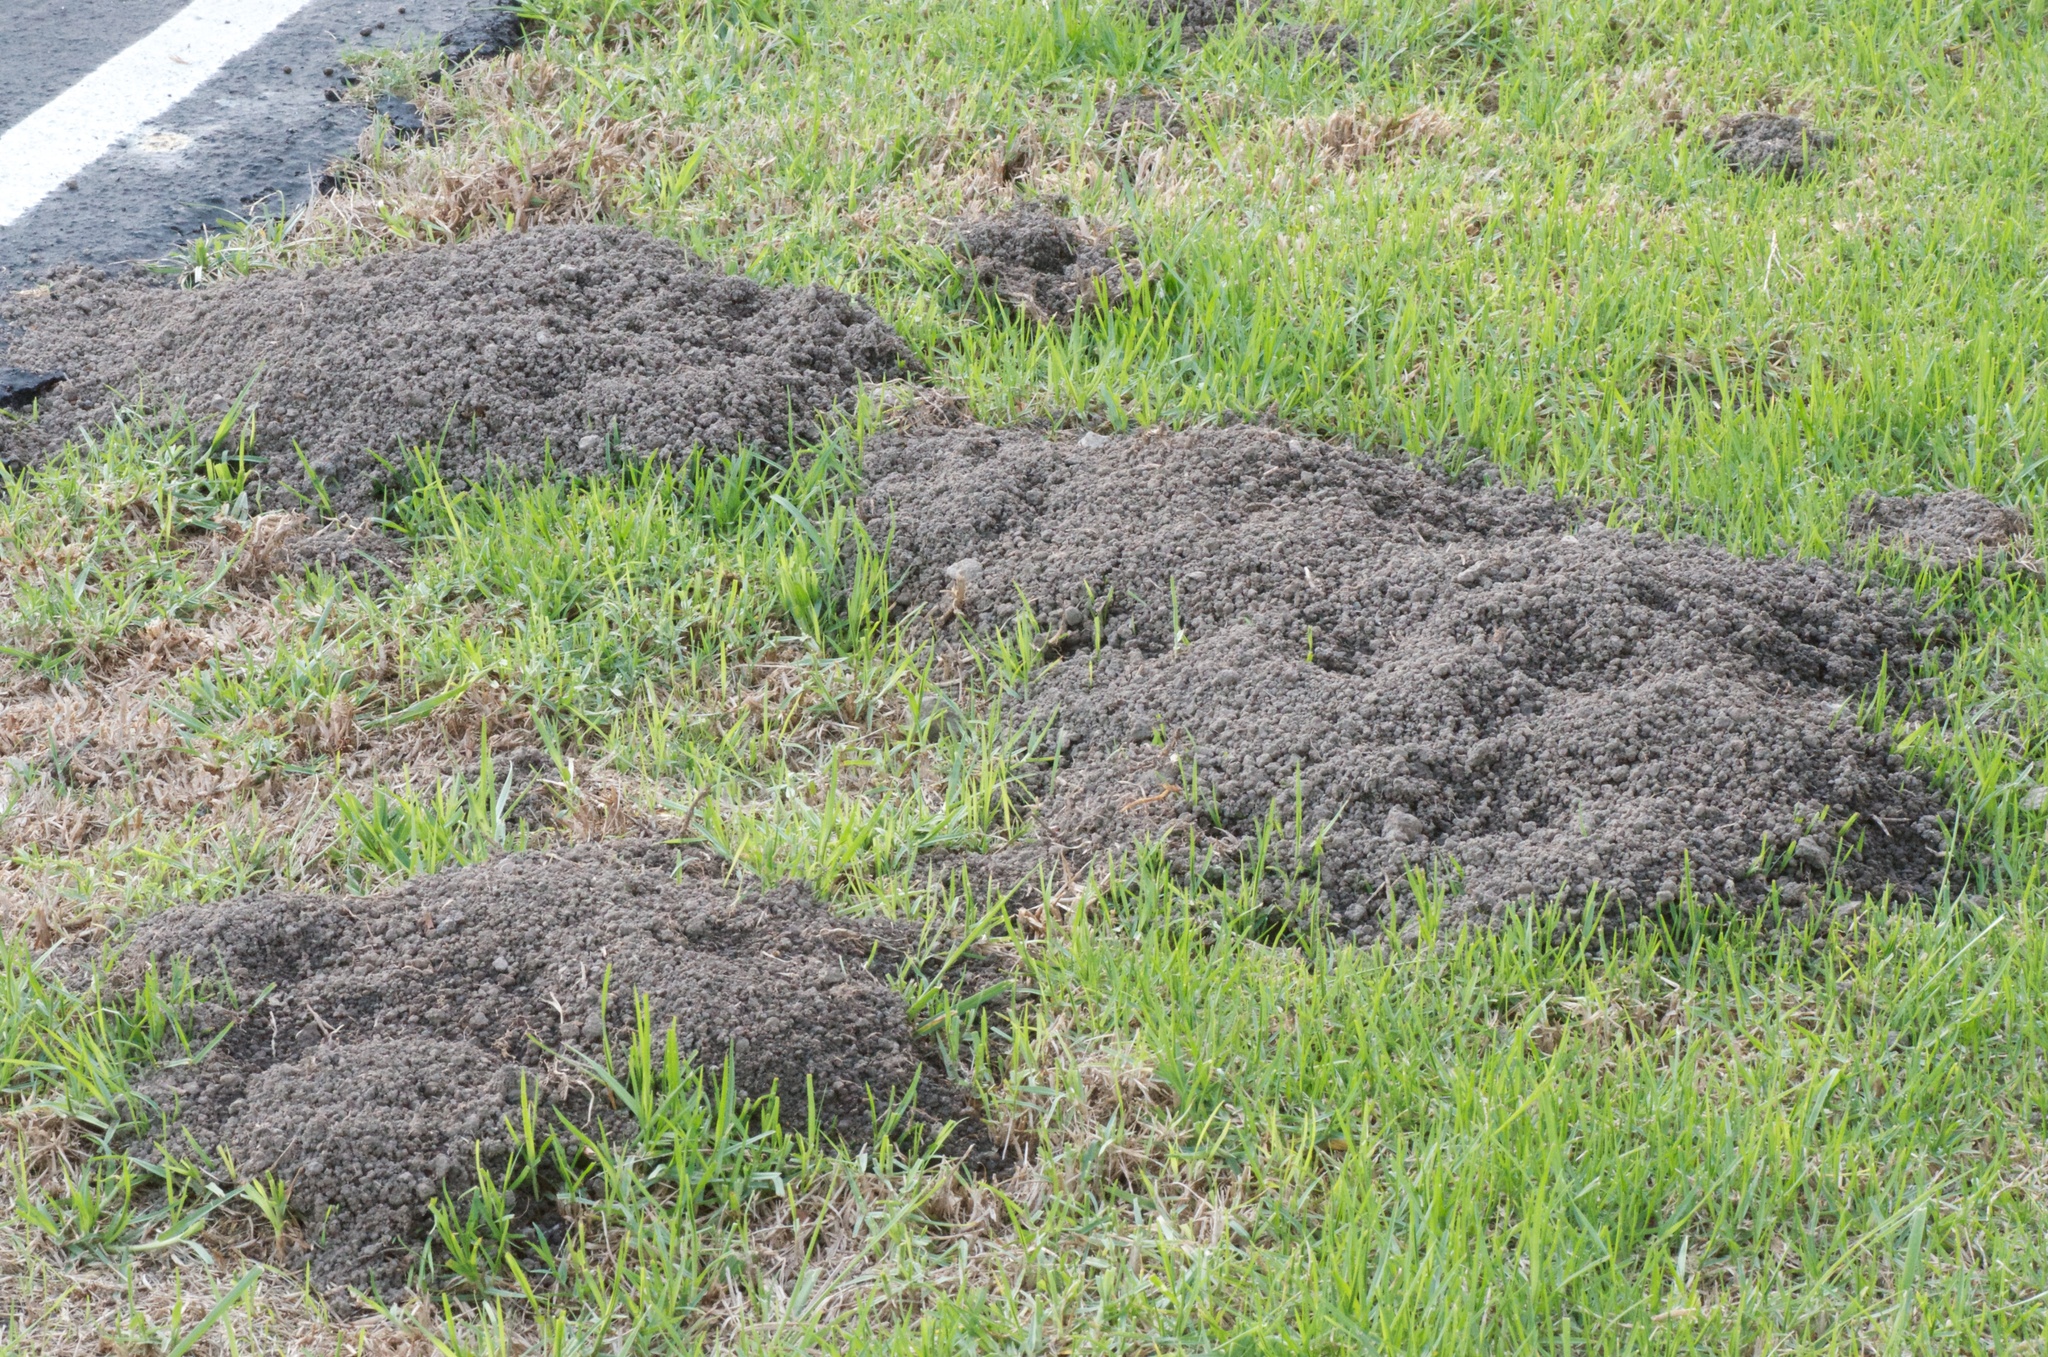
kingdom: Animalia
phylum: Chordata
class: Mammalia
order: Rodentia
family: Geomyidae
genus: Thomomys
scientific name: Thomomys bottae
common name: Botta's pocket gopher
